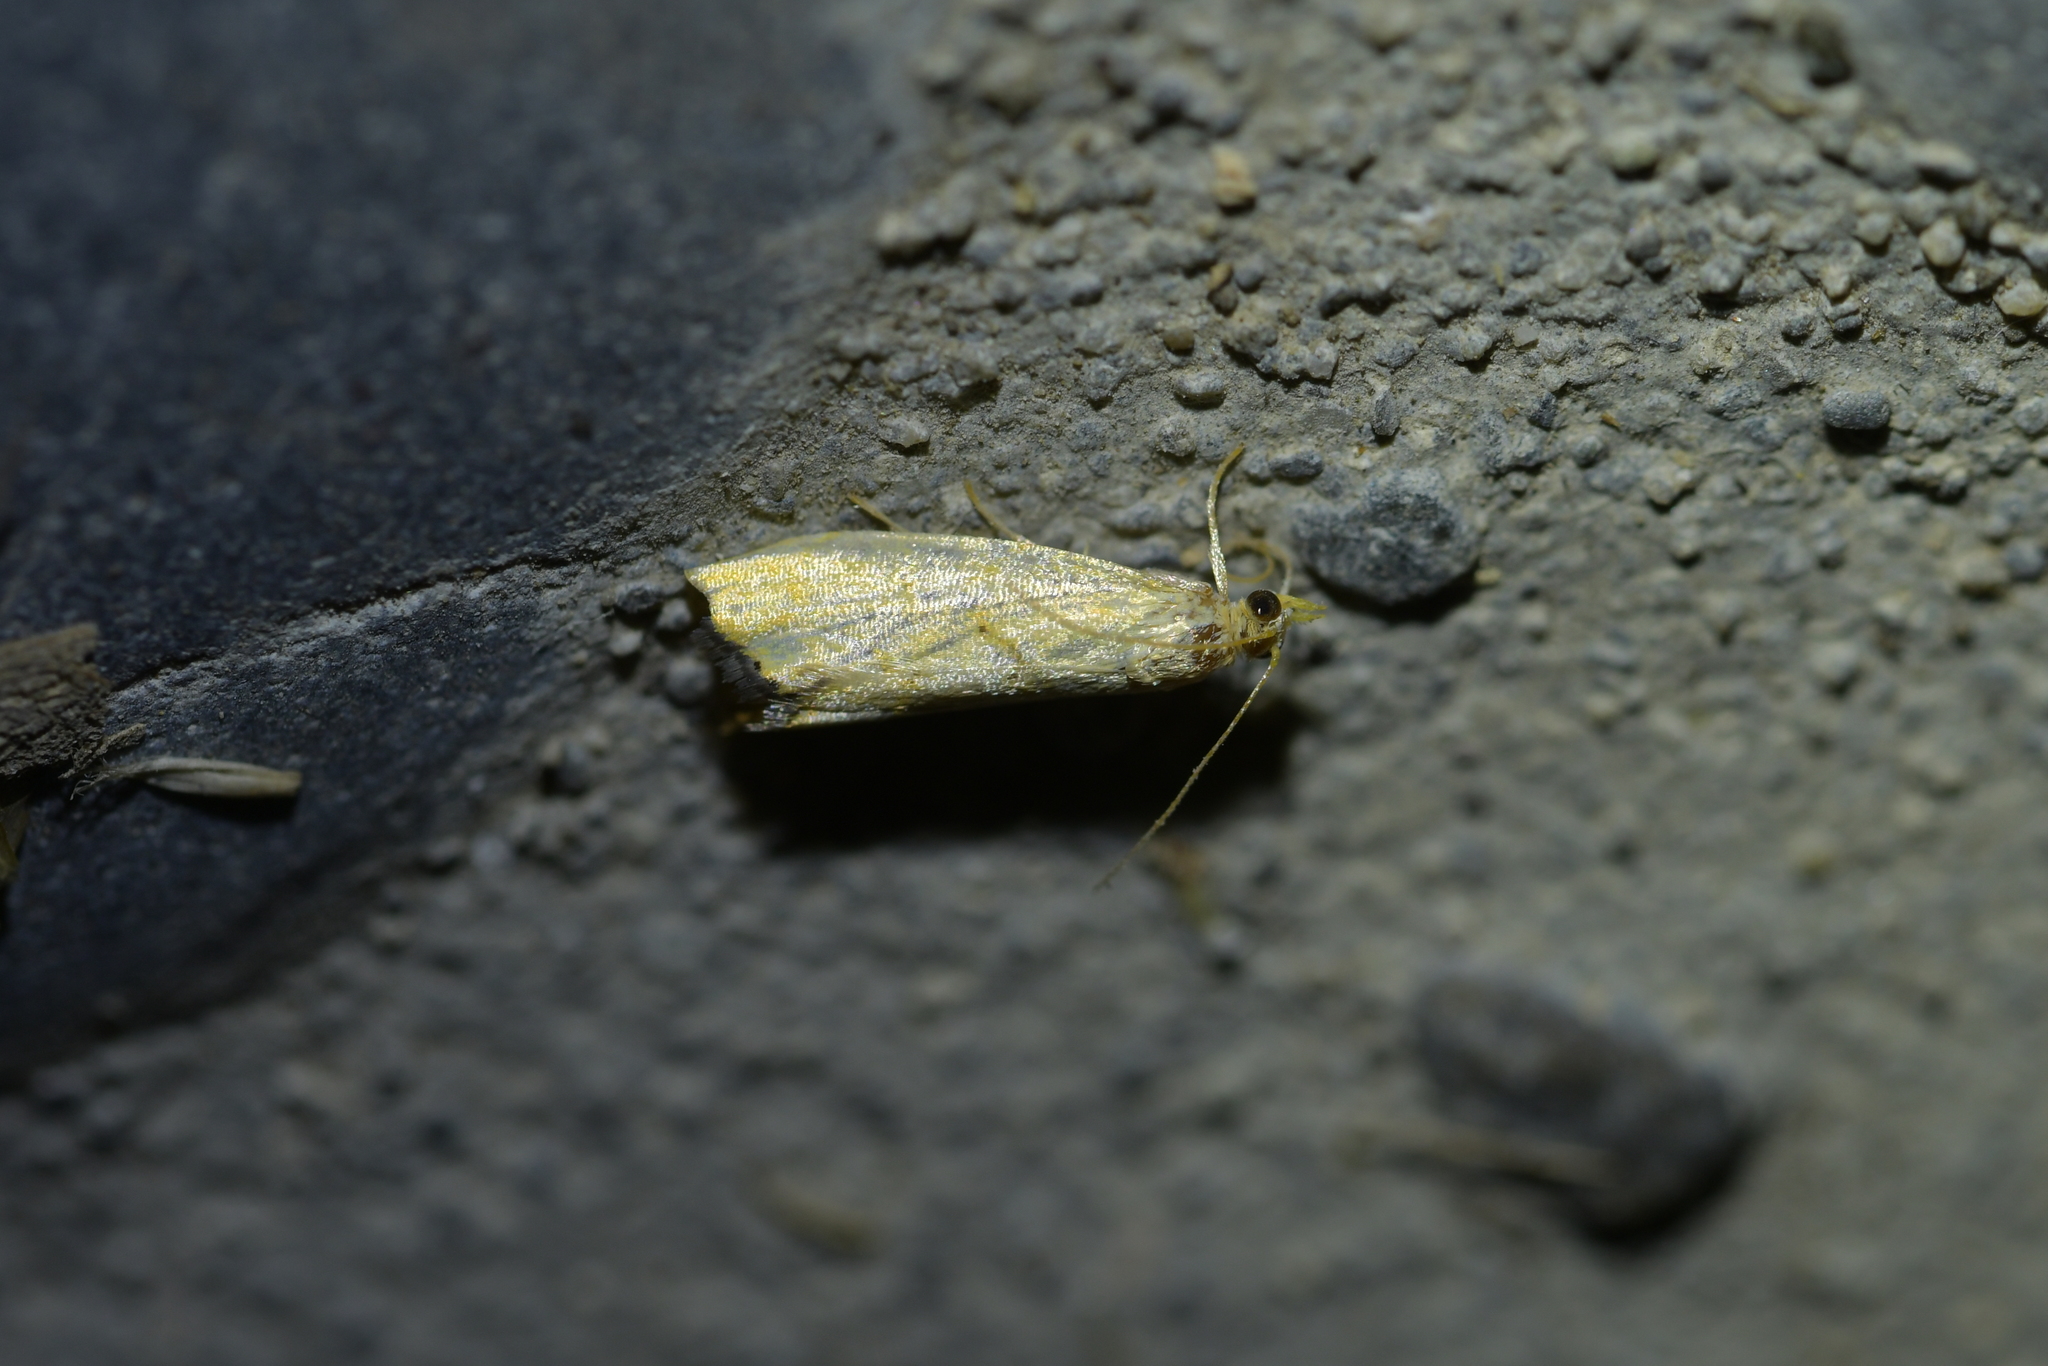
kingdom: Animalia
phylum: Arthropoda
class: Insecta
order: Lepidoptera
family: Crambidae
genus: Glaucocharis
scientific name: Glaucocharis holanthes
